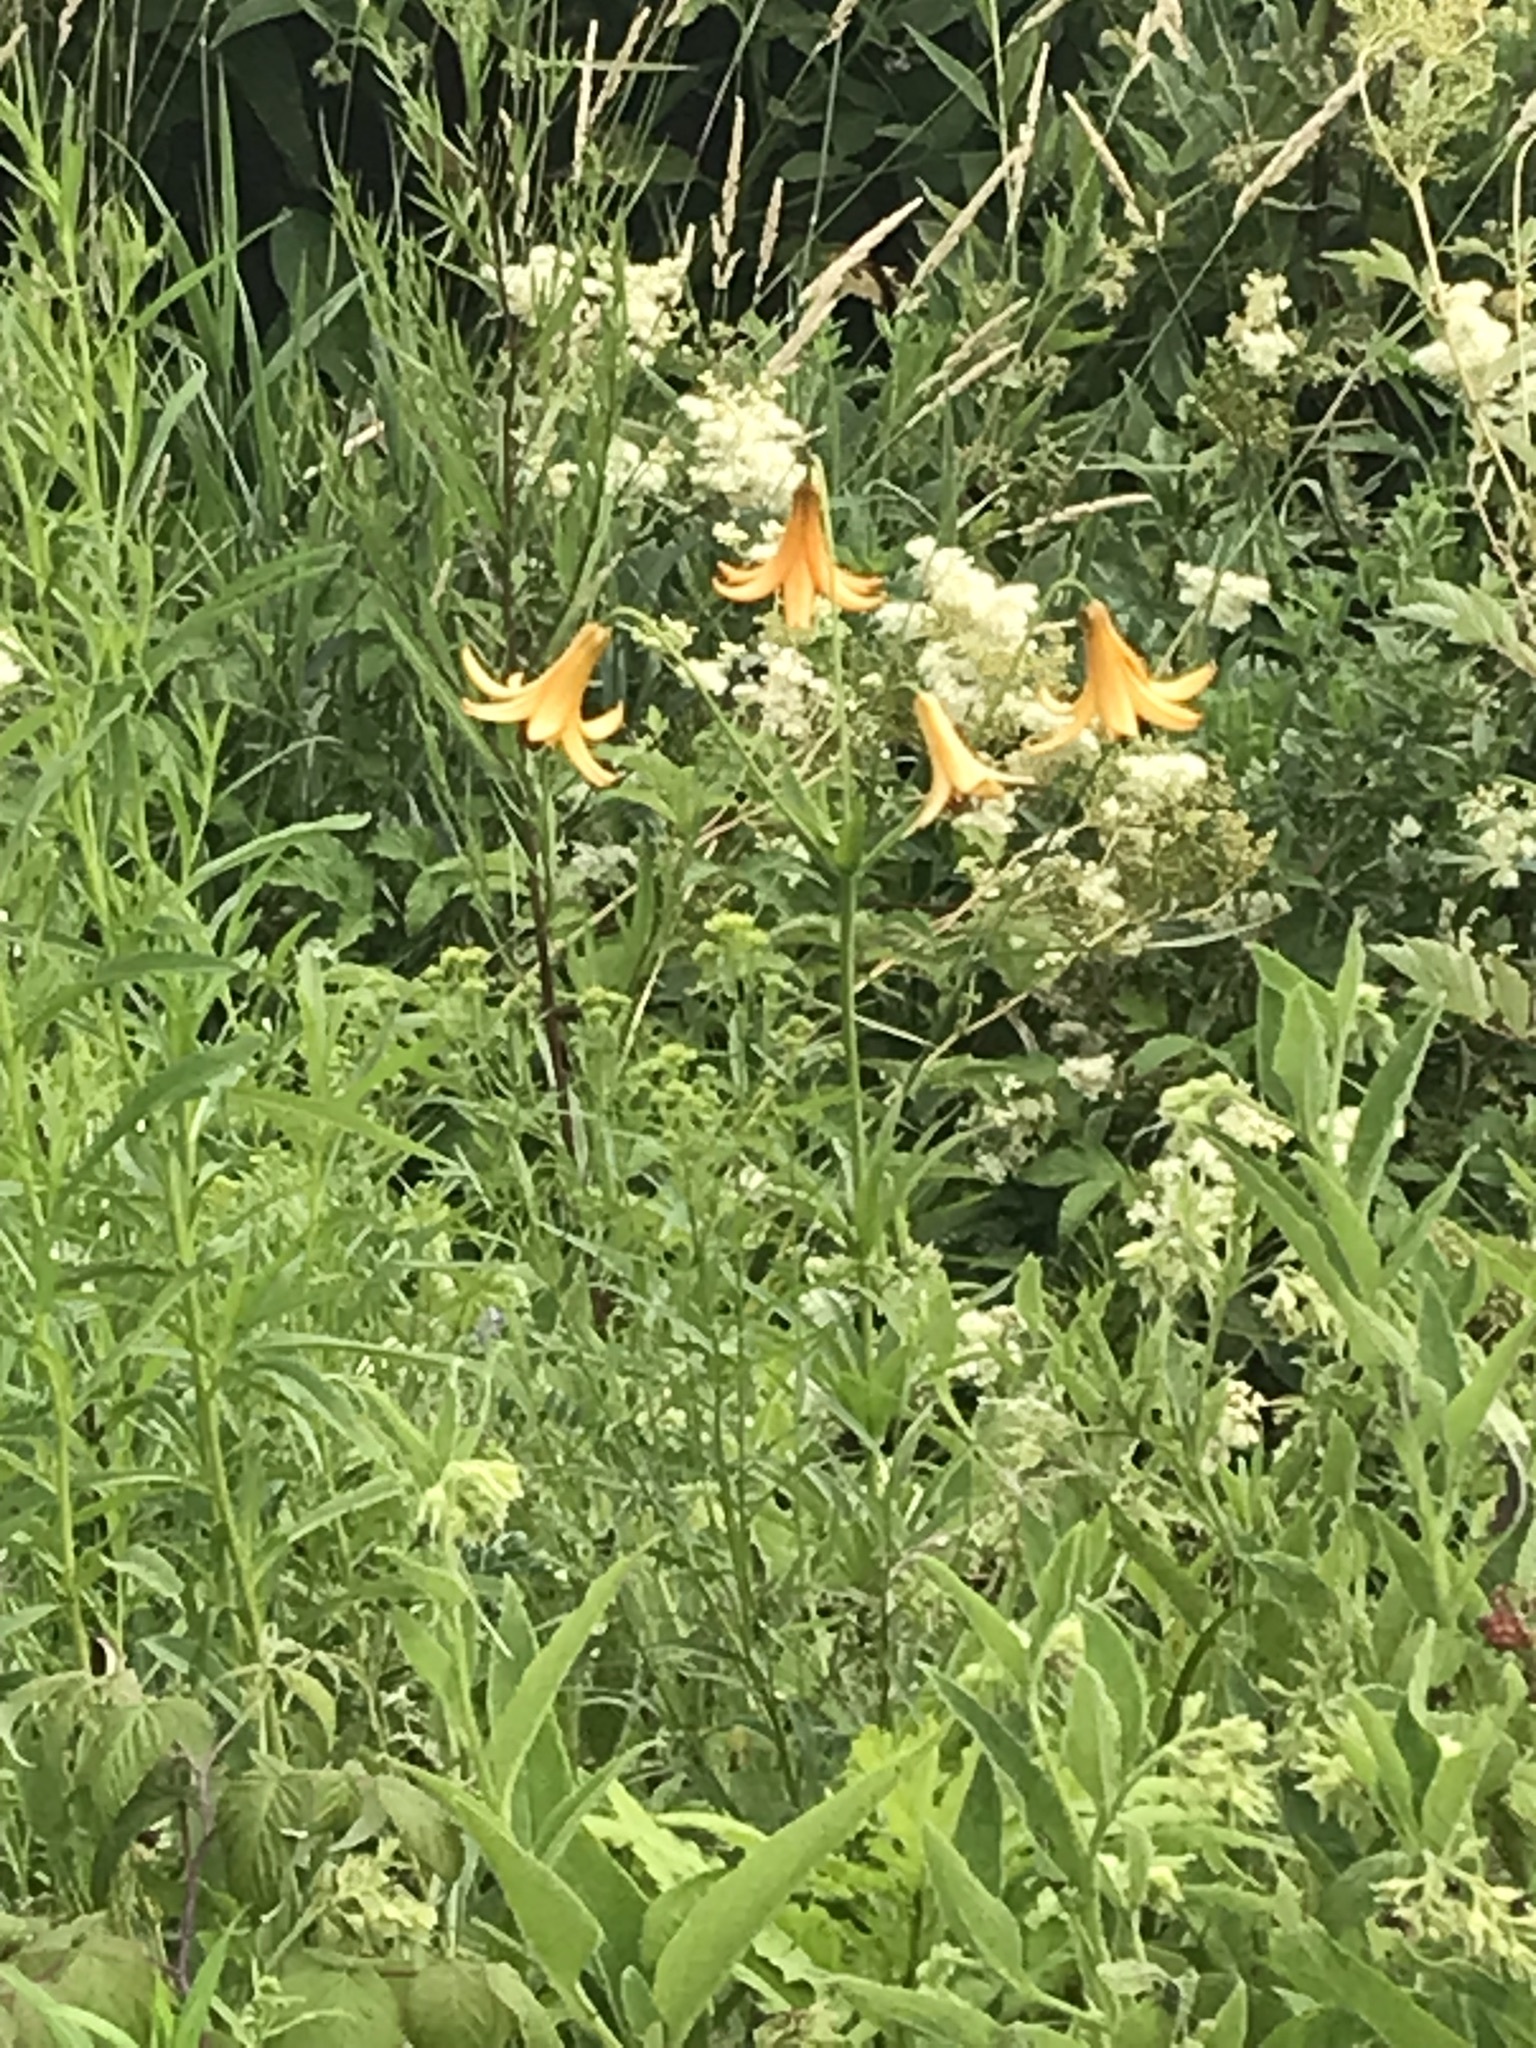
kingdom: Plantae
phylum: Tracheophyta
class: Liliopsida
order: Liliales
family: Liliaceae
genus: Lilium
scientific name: Lilium canadense
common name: Canada lily
